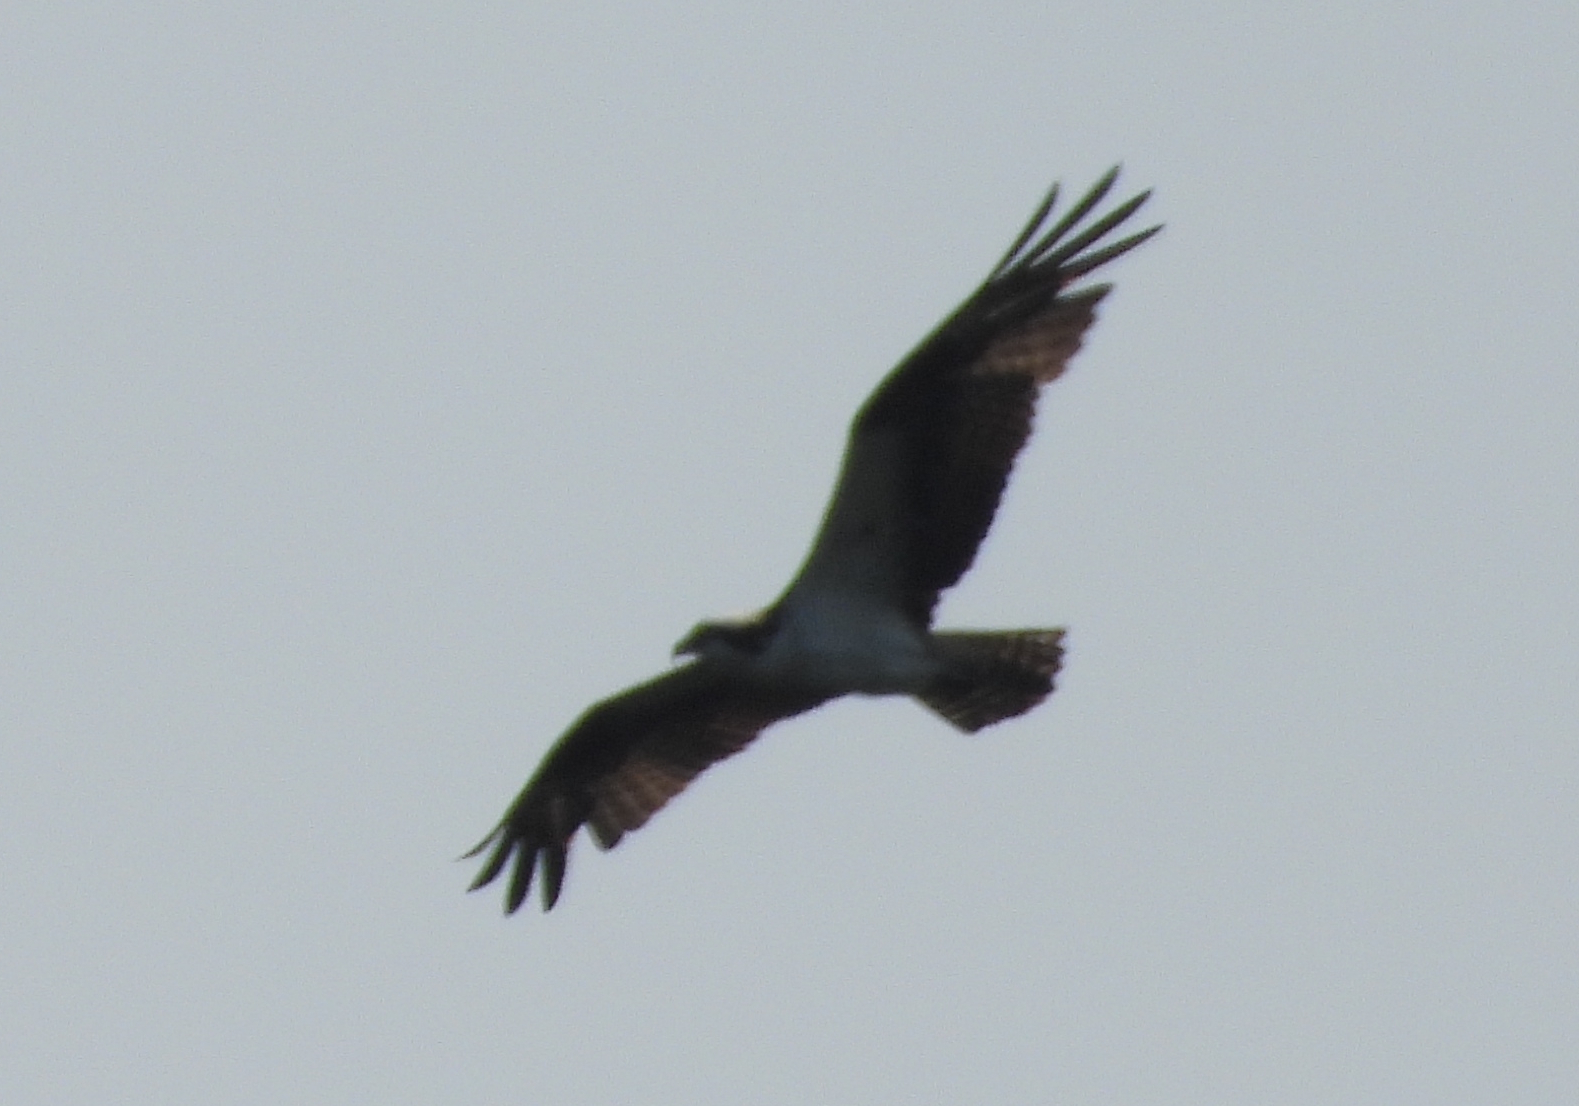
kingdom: Animalia
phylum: Chordata
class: Aves
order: Accipitriformes
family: Pandionidae
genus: Pandion
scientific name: Pandion haliaetus
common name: Osprey
